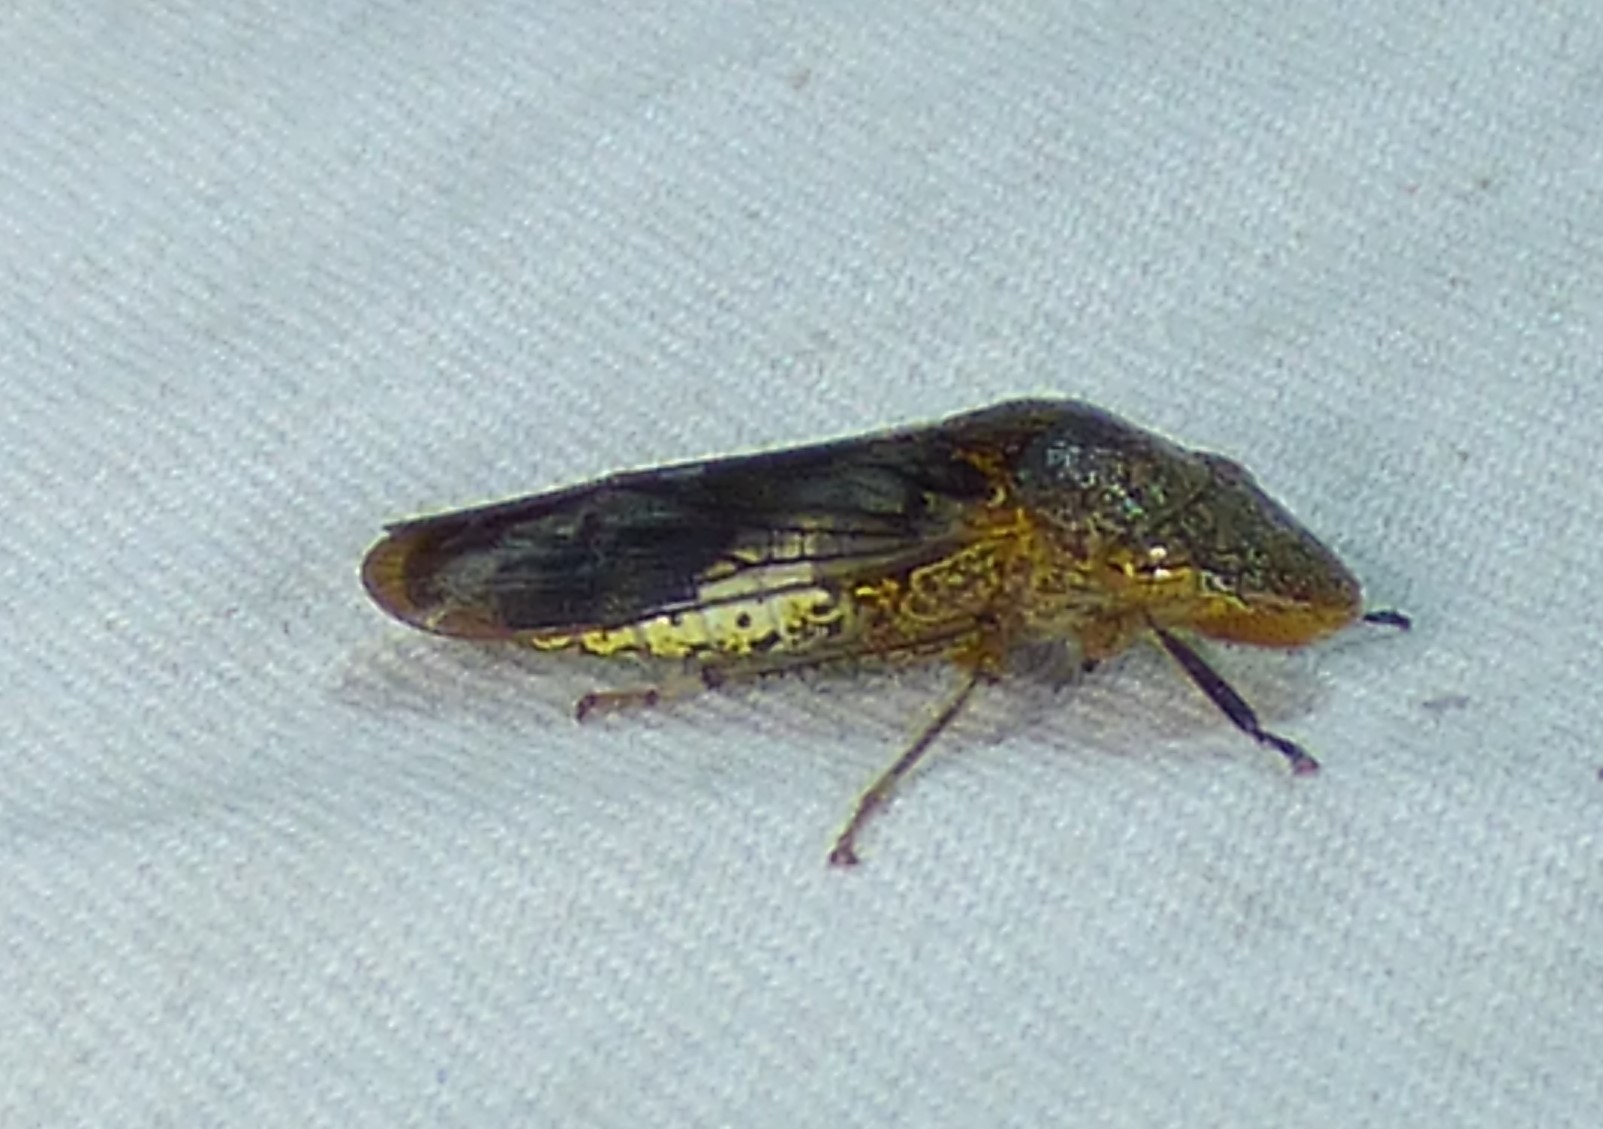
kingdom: Animalia
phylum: Arthropoda
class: Insecta
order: Hemiptera
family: Cicadellidae
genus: Homalodisca
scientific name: Homalodisca vitripennis
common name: Glassy-winged sharpshooter
